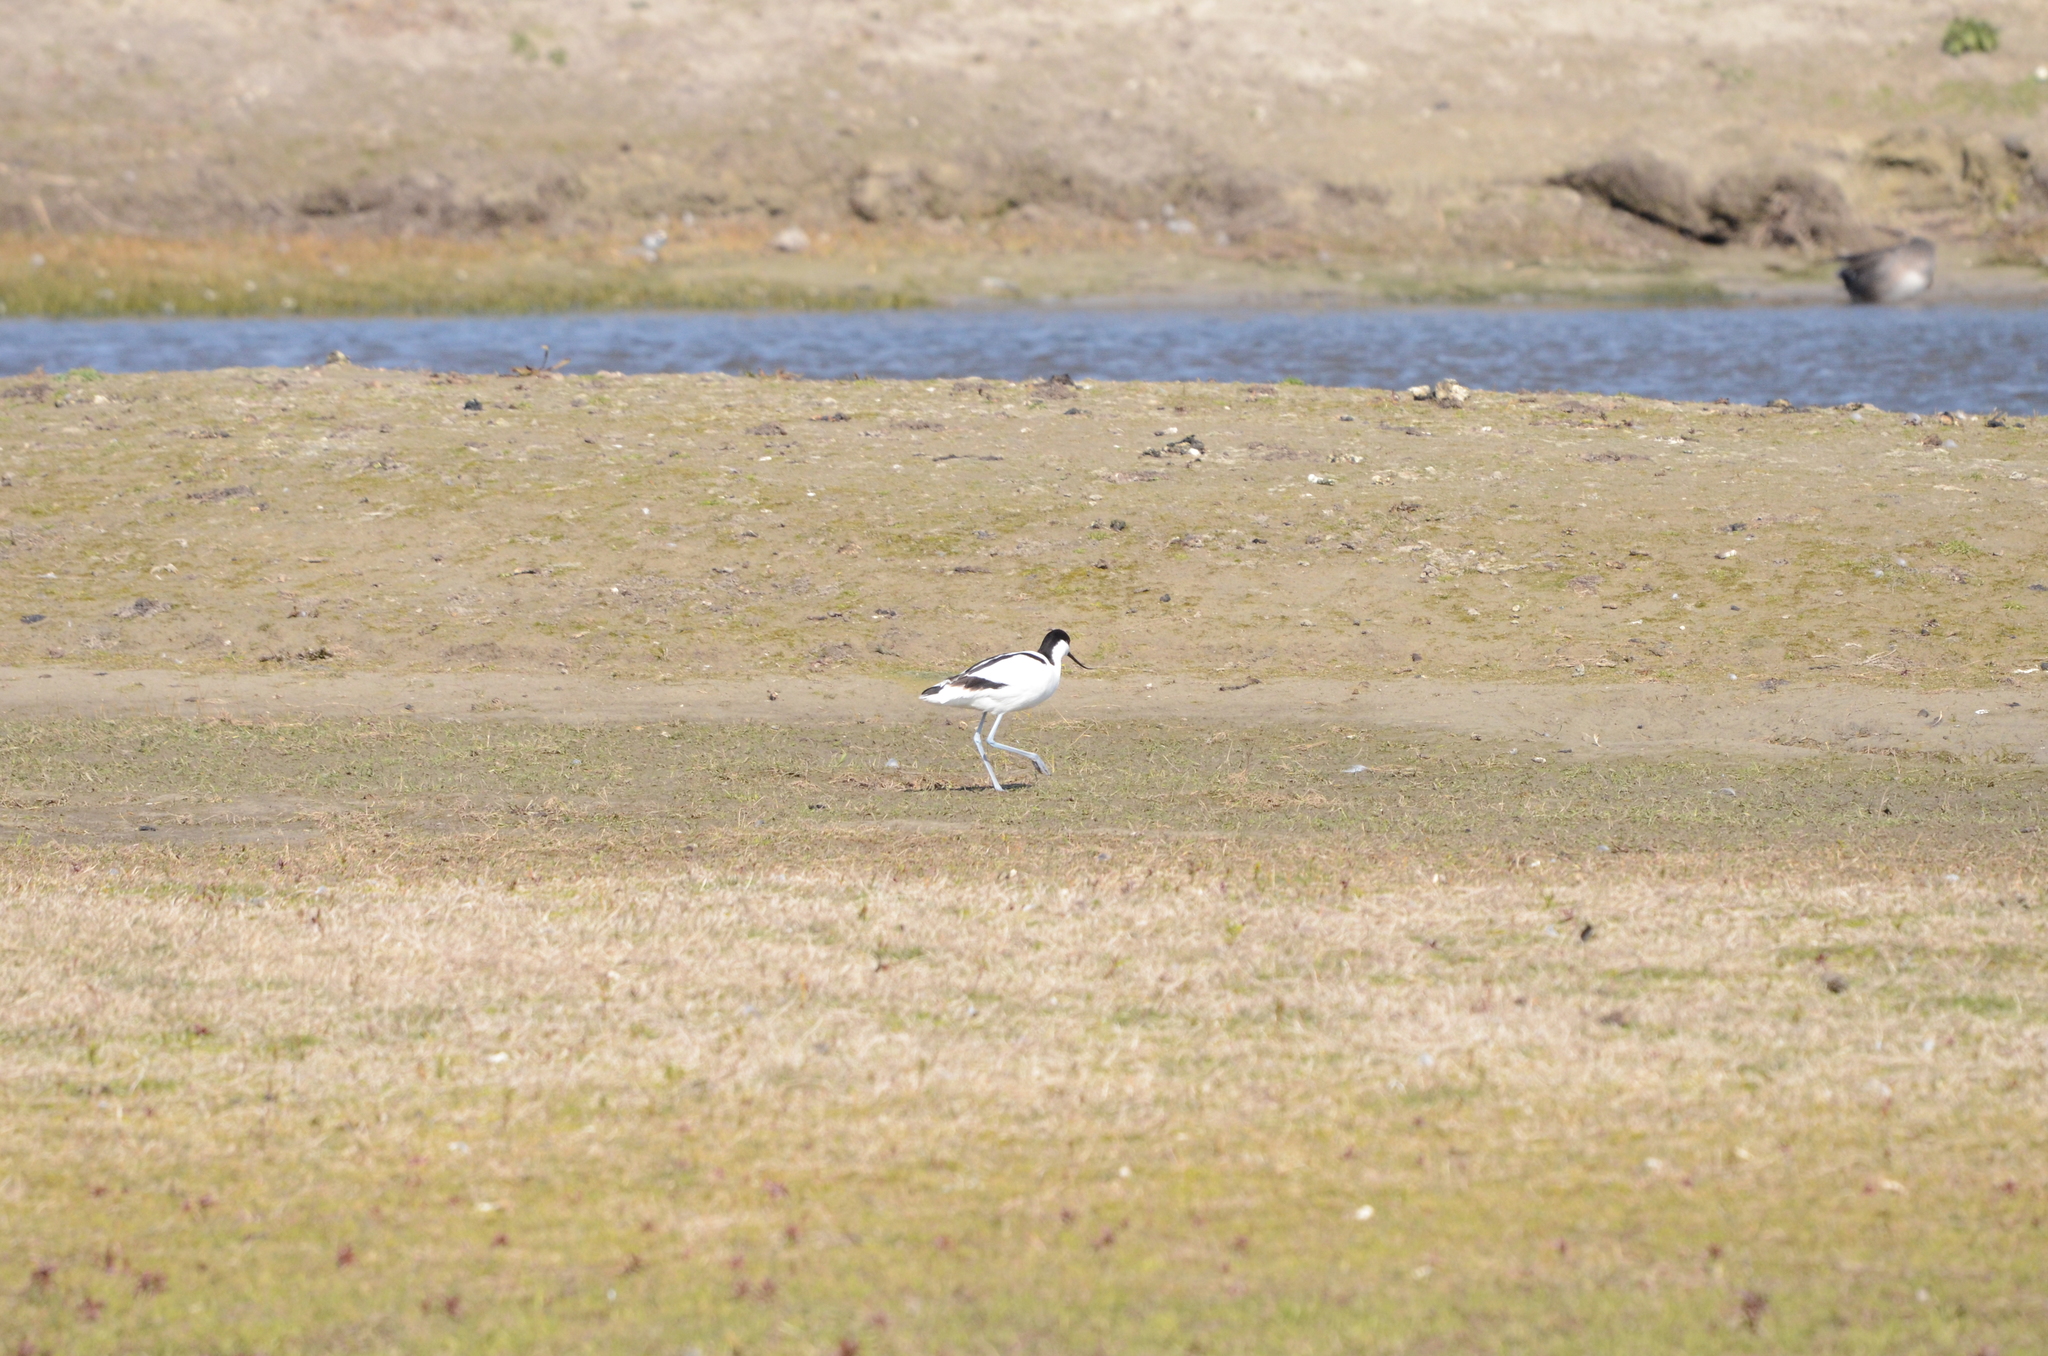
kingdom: Animalia
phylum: Chordata
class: Aves
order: Charadriiformes
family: Recurvirostridae
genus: Recurvirostra
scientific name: Recurvirostra avosetta
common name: Pied avocet
